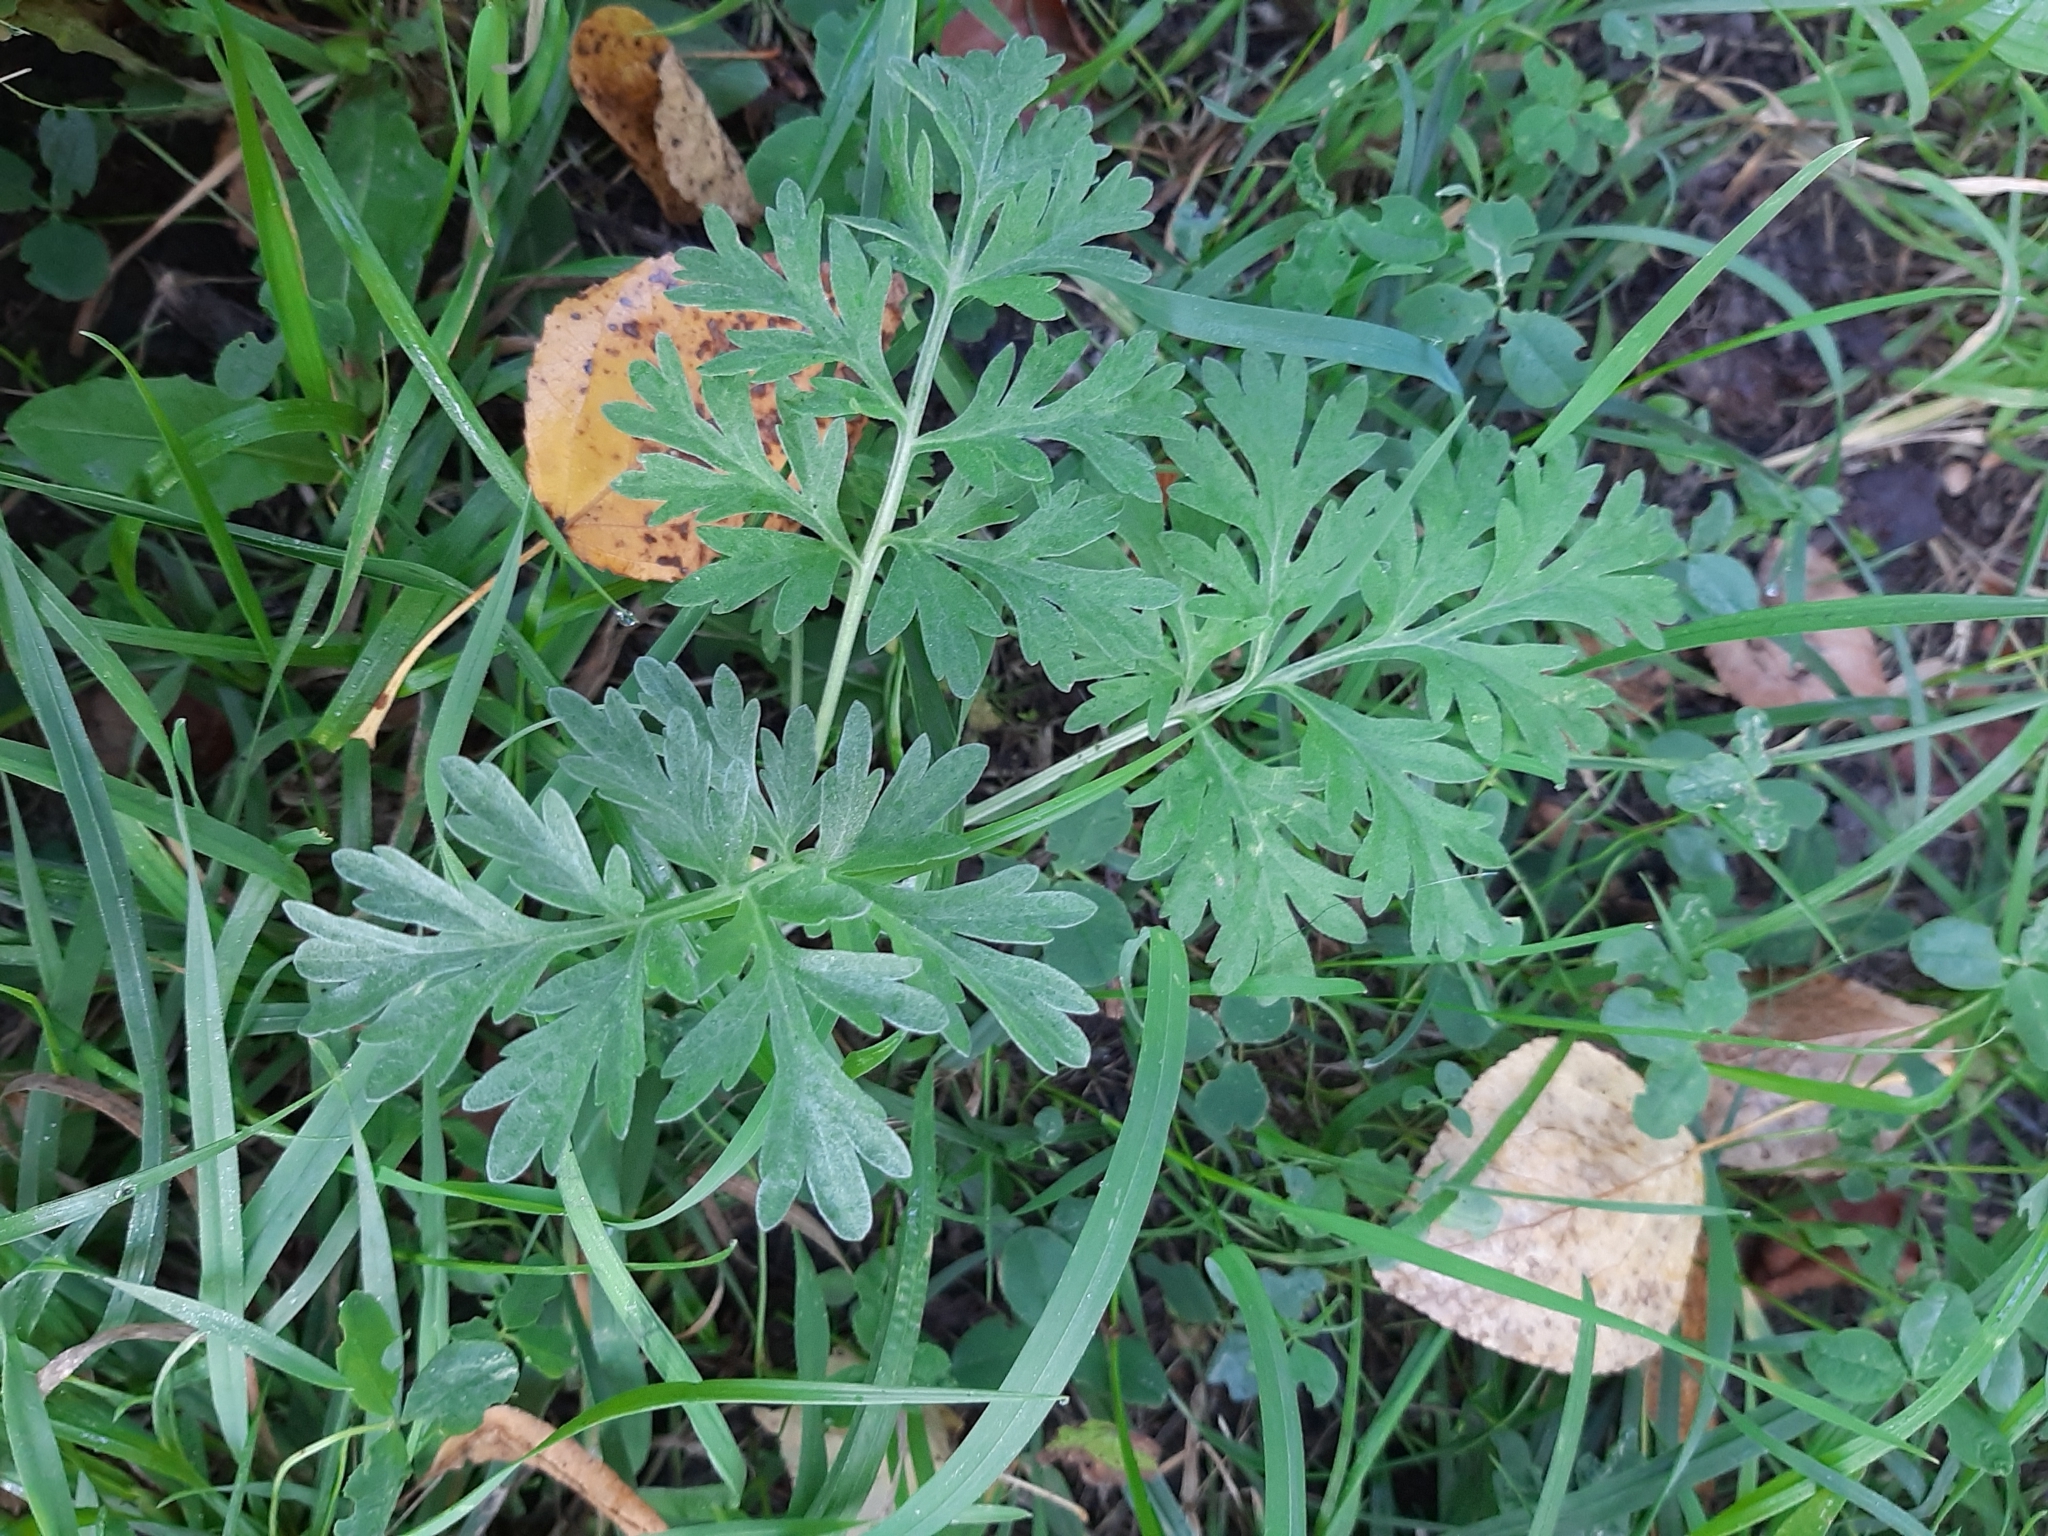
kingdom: Plantae
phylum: Tracheophyta
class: Magnoliopsida
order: Asterales
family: Asteraceae
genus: Artemisia
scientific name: Artemisia absinthium
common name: Wormwood
